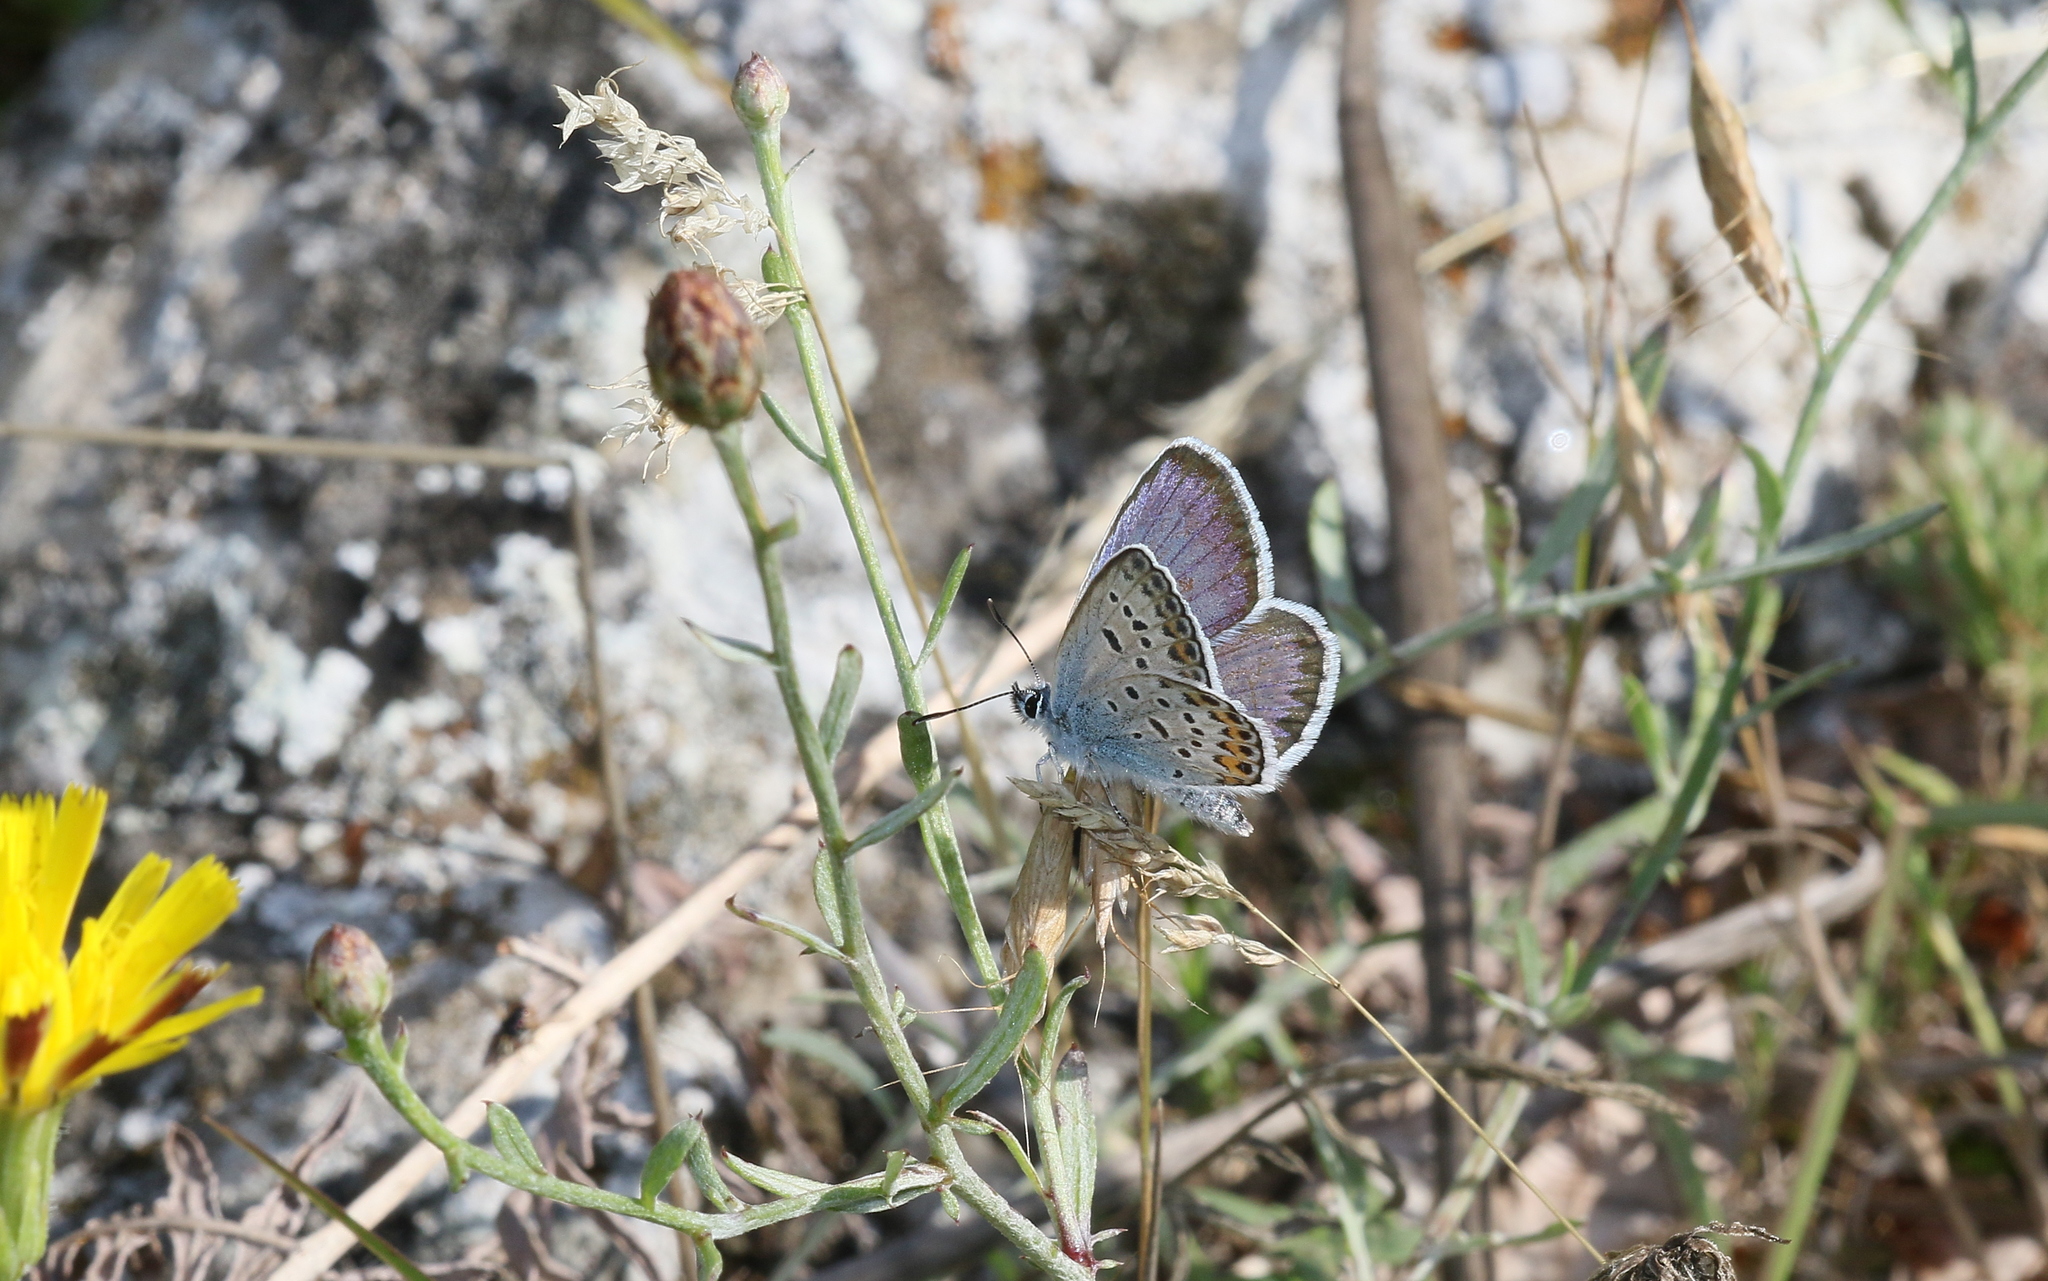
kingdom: Animalia
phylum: Arthropoda
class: Insecta
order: Lepidoptera
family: Lycaenidae
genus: Plebejus
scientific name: Plebejus argus
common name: Silver-studded blue
